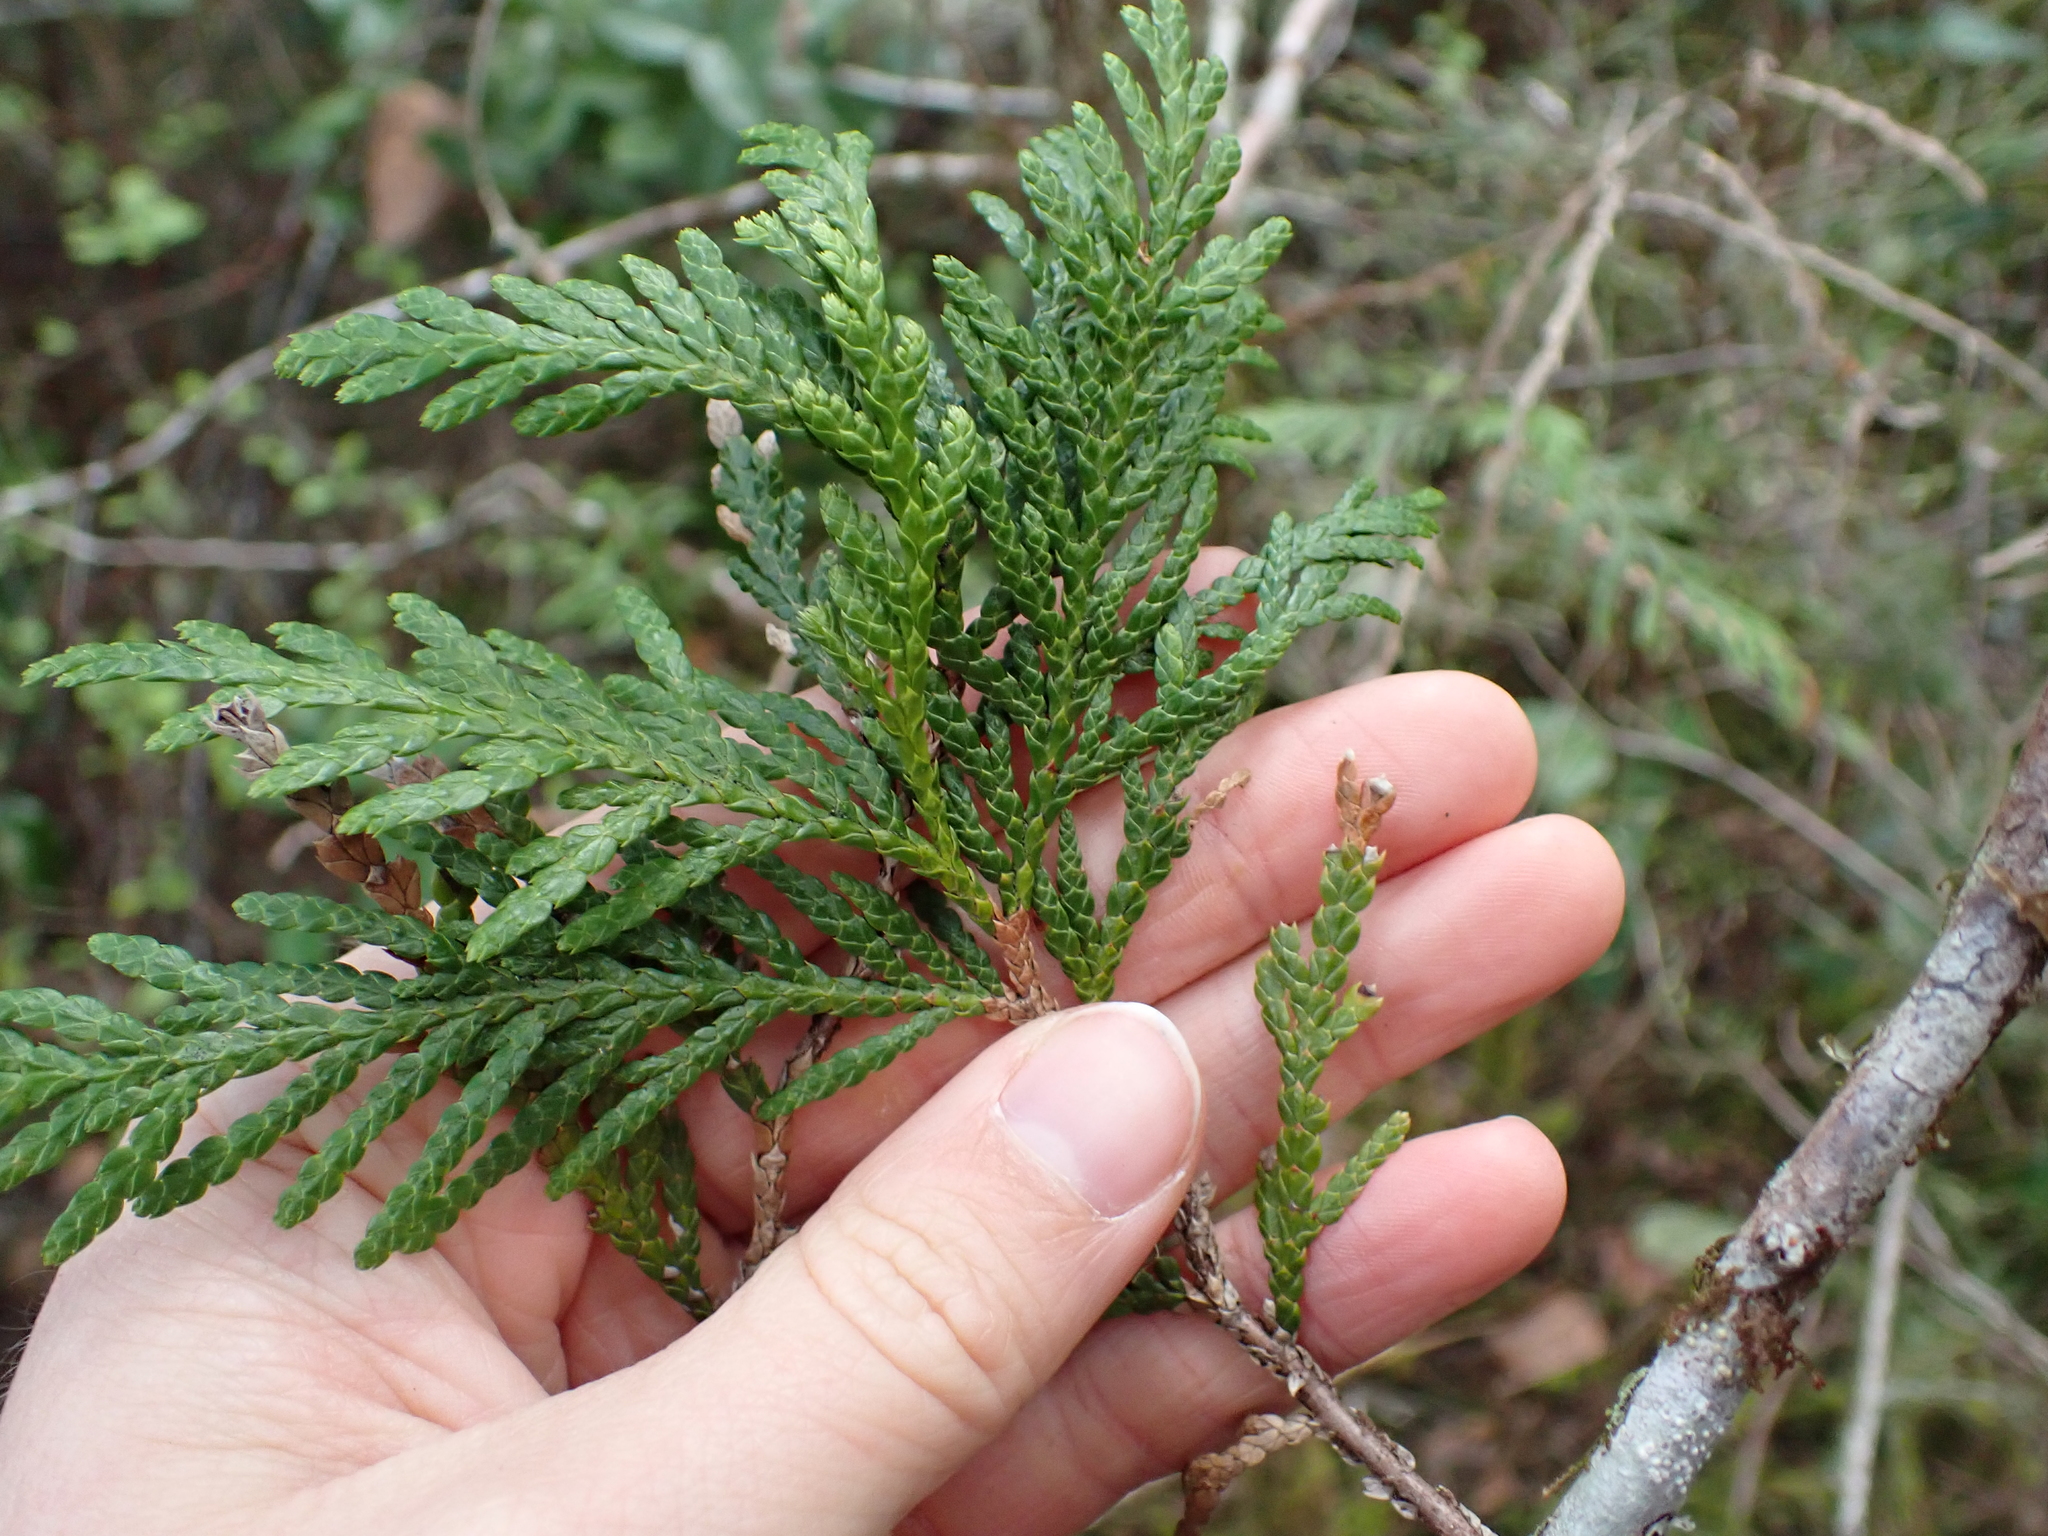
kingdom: Plantae
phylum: Tracheophyta
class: Pinopsida
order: Pinales
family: Cupressaceae
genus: Thuja
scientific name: Thuja plicata
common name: Western red-cedar
